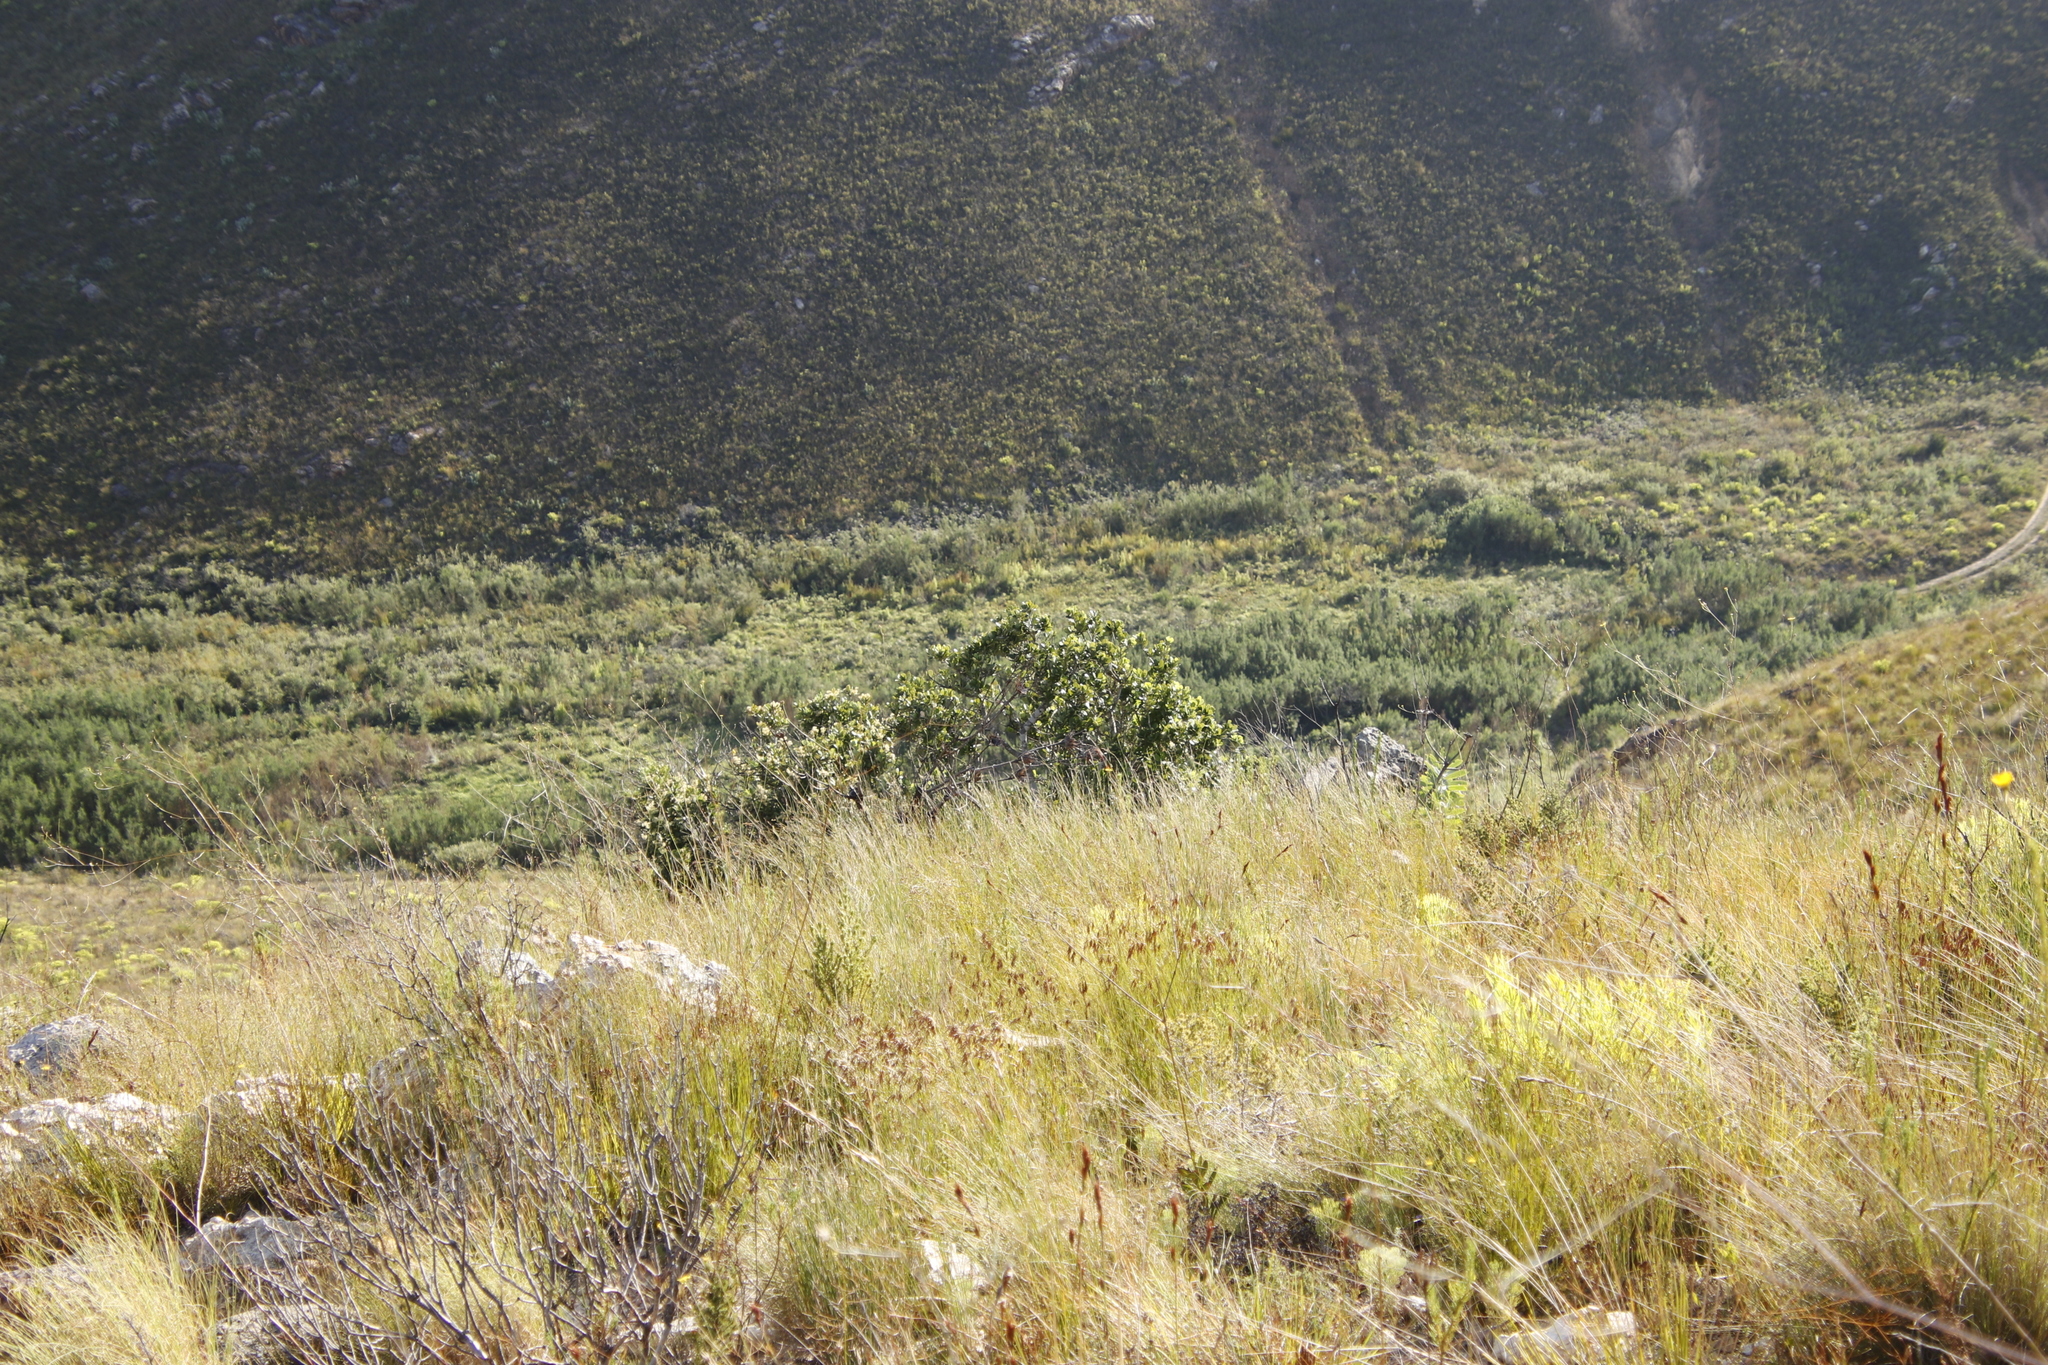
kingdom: Plantae
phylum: Tracheophyta
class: Magnoliopsida
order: Sapindales
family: Anacardiaceae
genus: Heeria
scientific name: Heeria argentea
